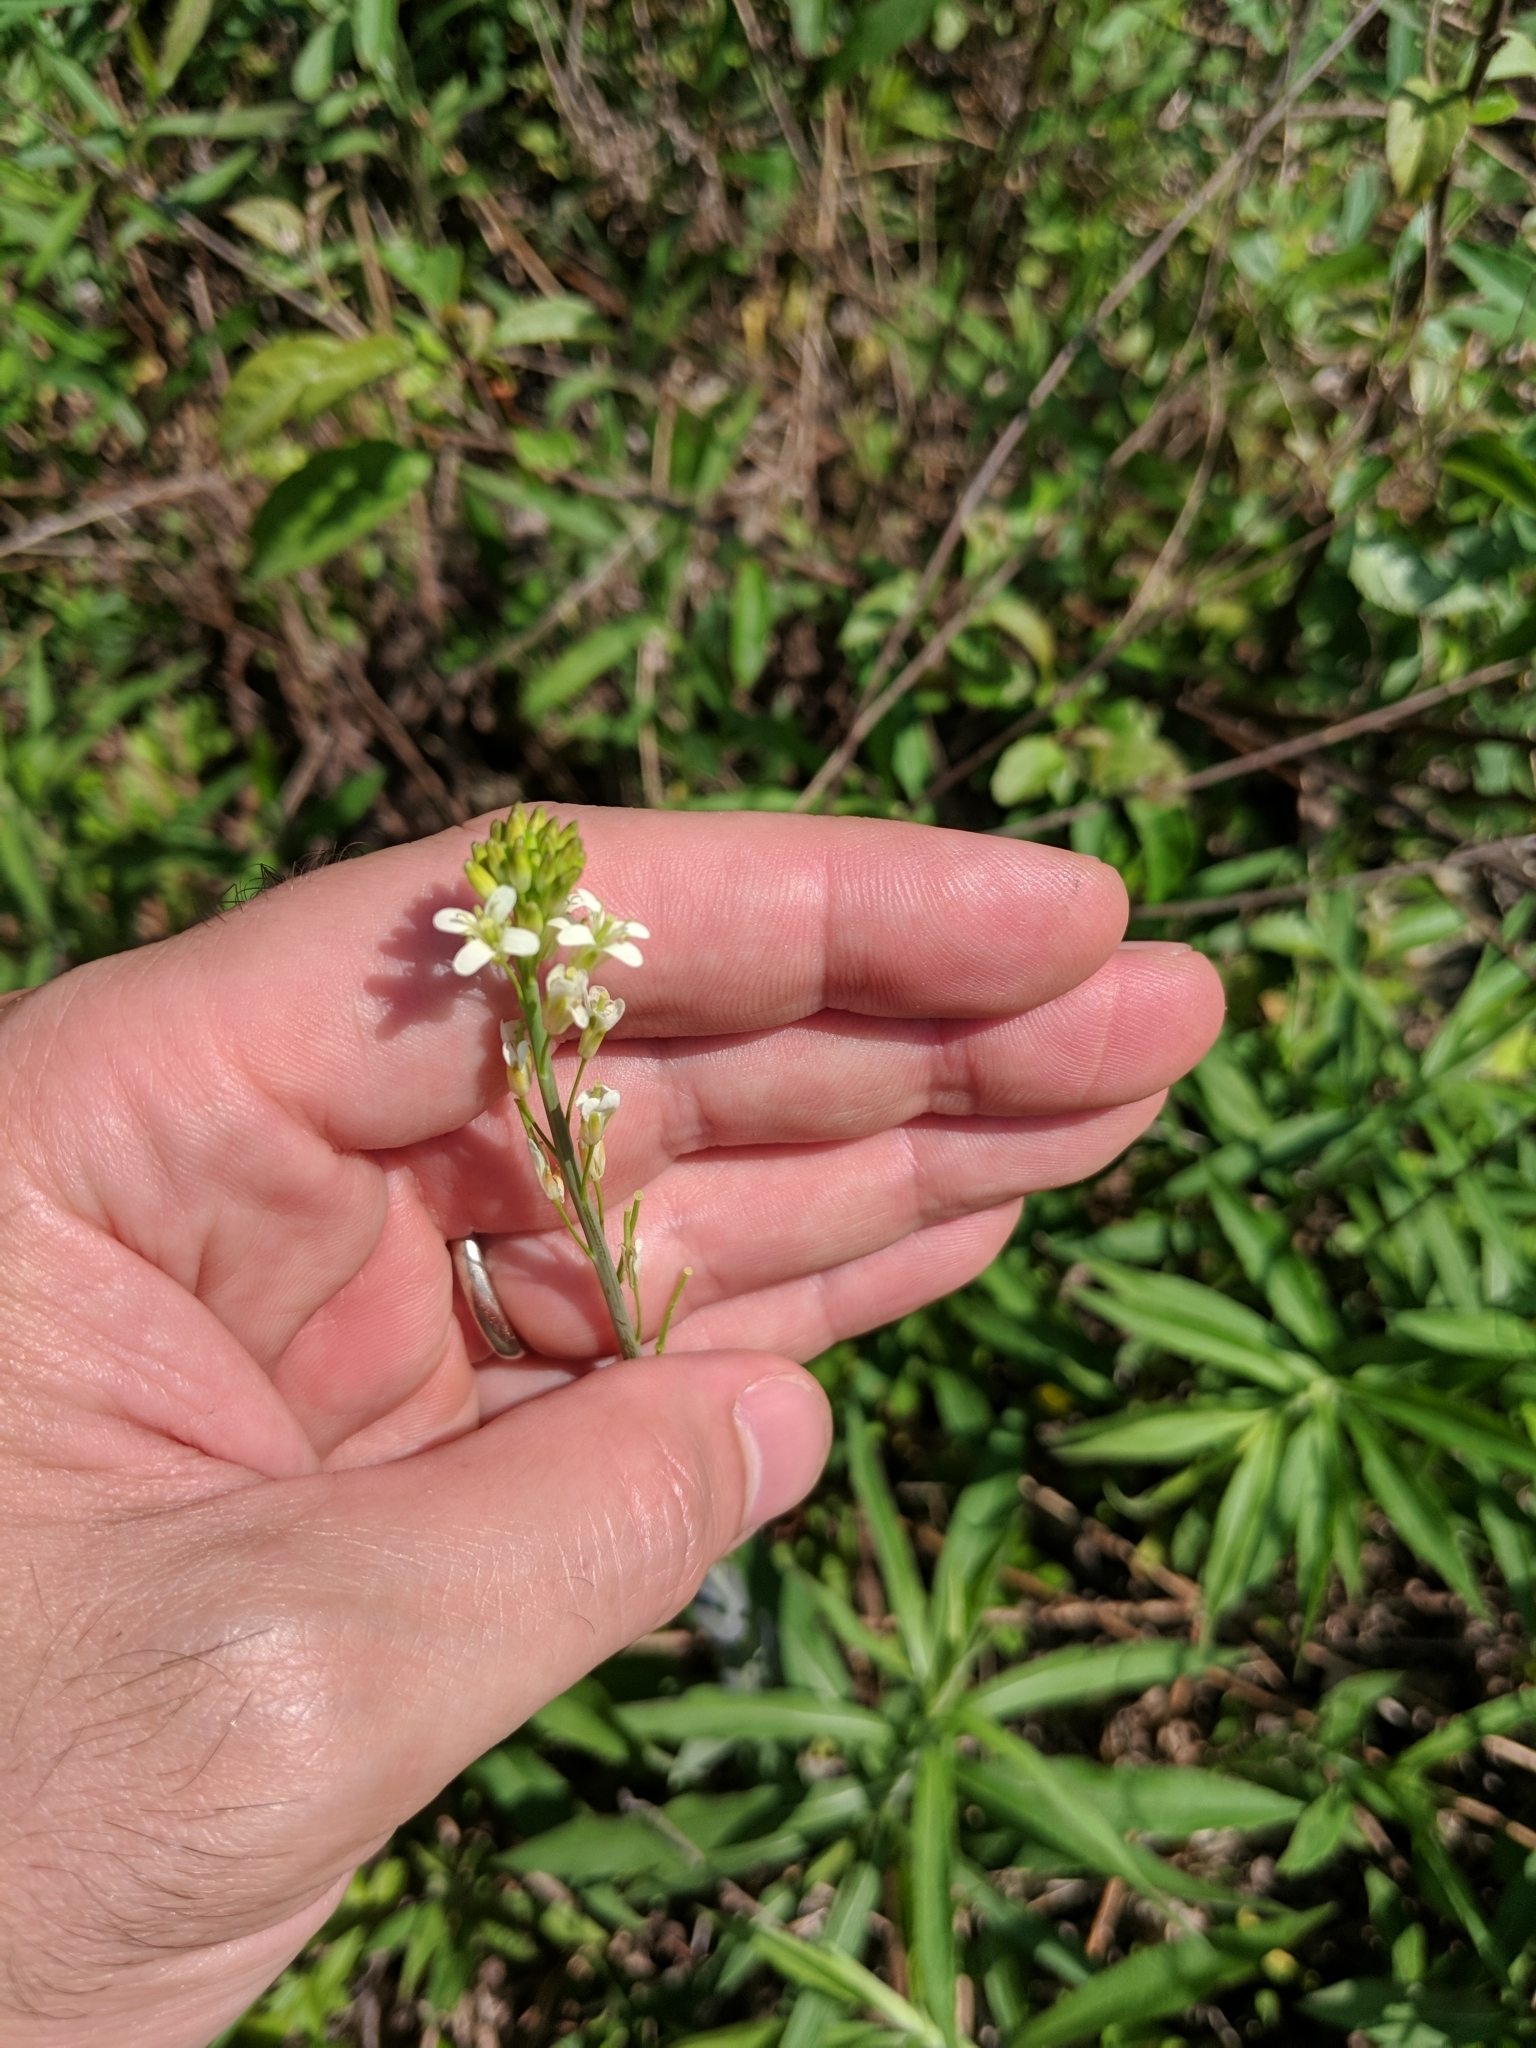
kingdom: Plantae
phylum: Tracheophyta
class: Magnoliopsida
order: Brassicales
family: Brassicaceae
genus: Turritis
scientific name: Turritis glabra
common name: Tower rockcress
